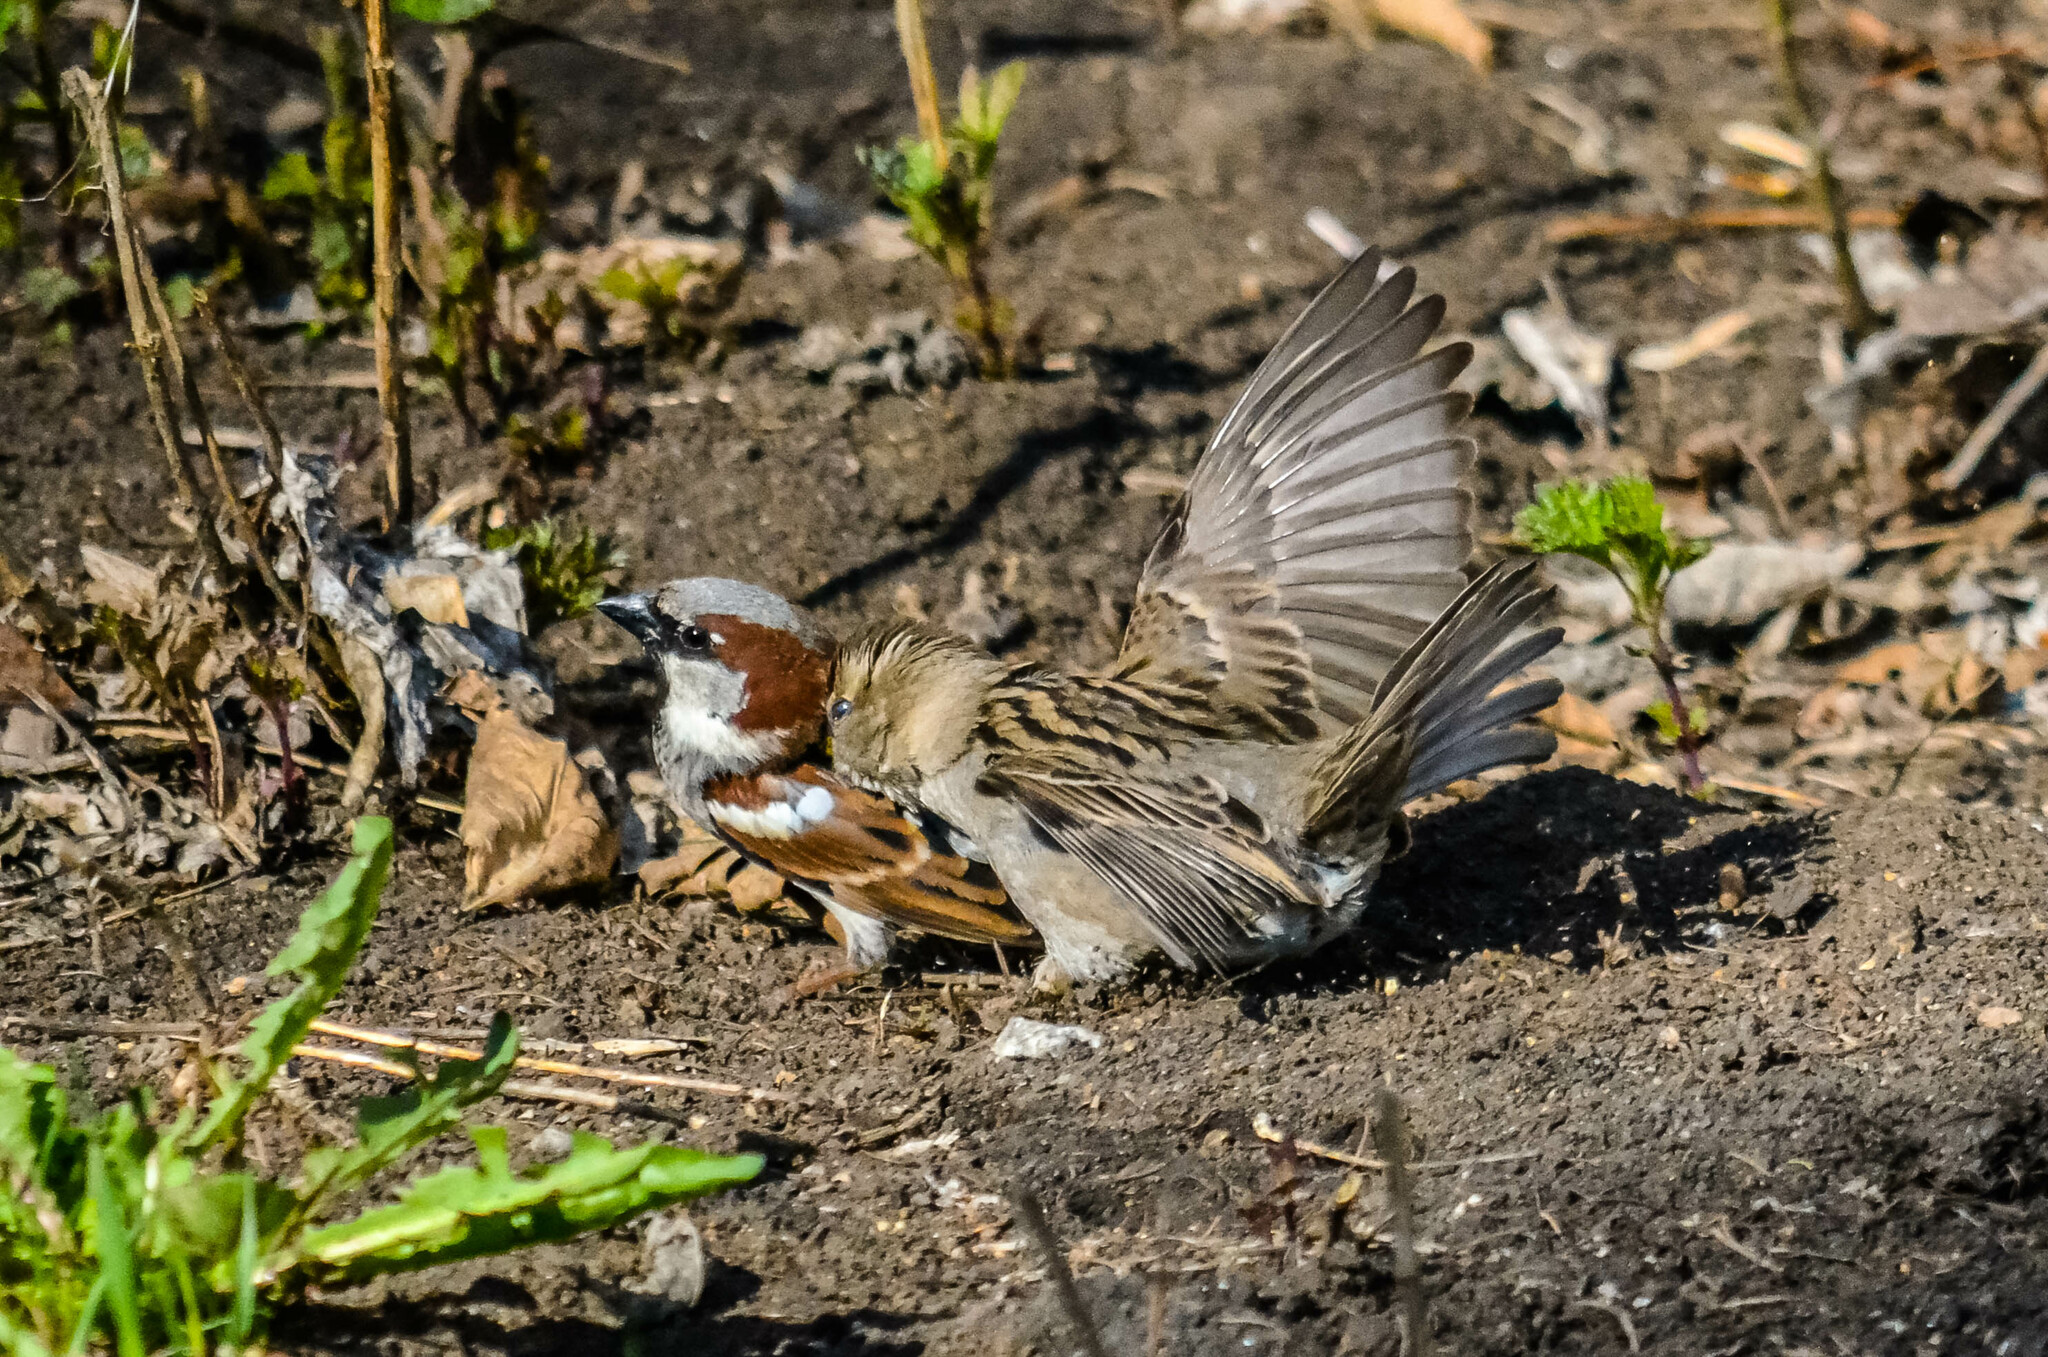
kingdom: Animalia
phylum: Chordata
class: Aves
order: Passeriformes
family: Passeridae
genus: Passer
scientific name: Passer domesticus
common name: House sparrow
